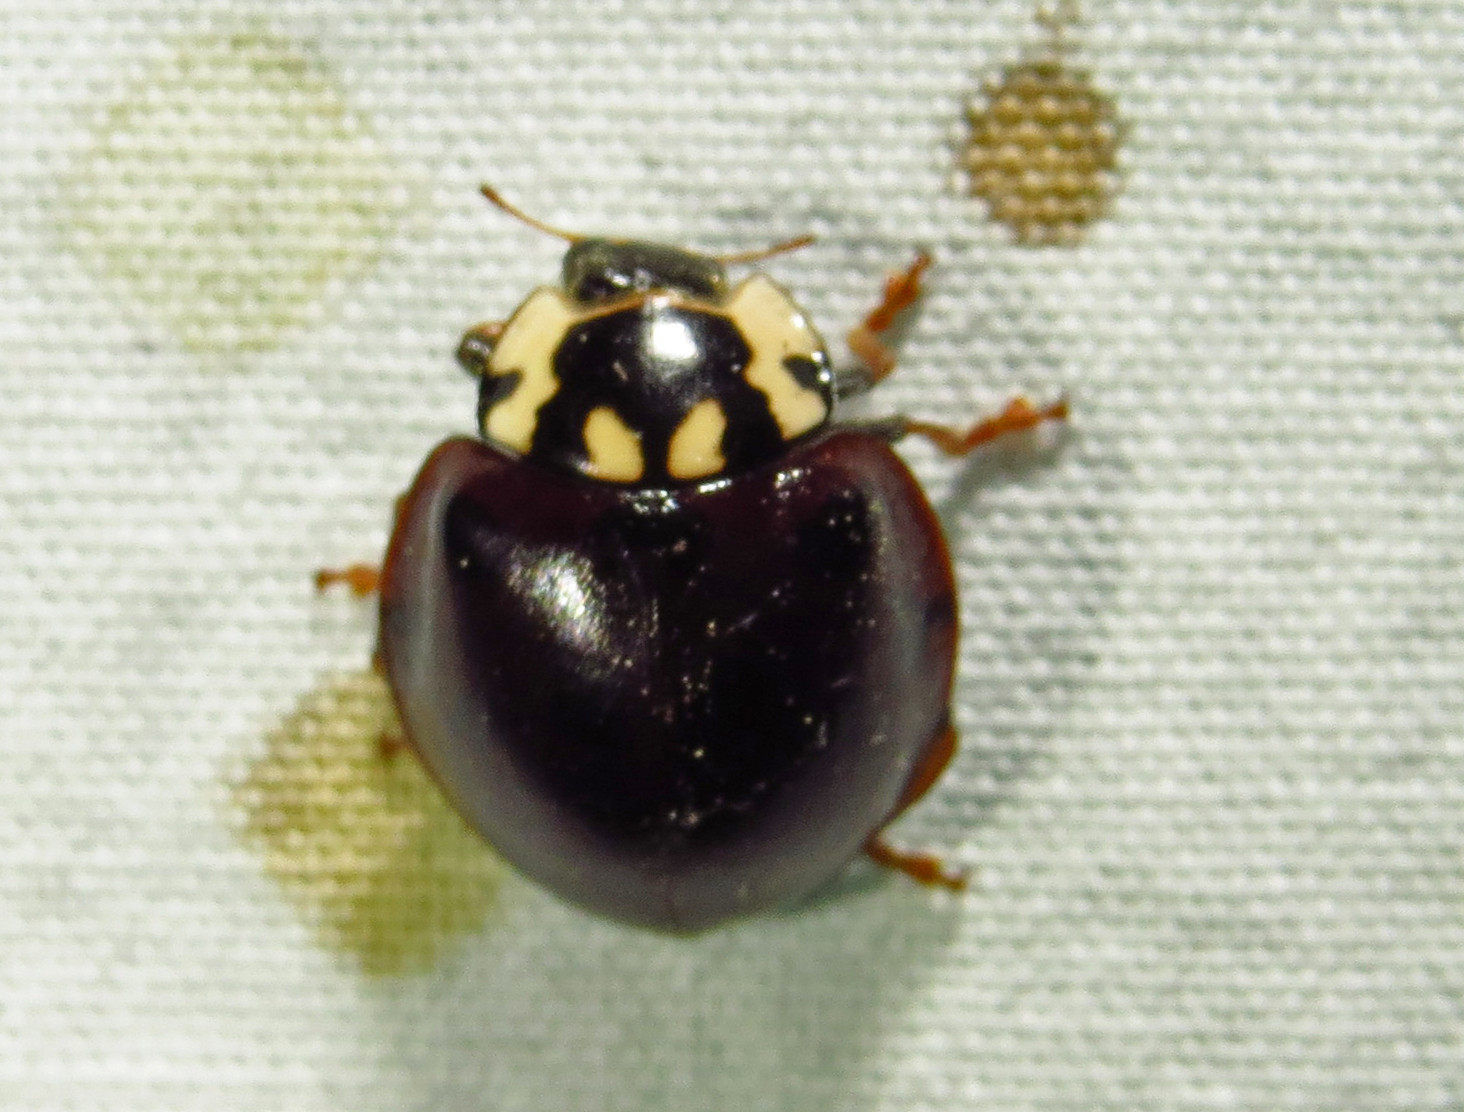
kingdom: Animalia
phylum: Arthropoda
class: Insecta
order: Coleoptera
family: Coccinellidae
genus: Anatis
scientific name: Anatis labiculata
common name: Fifteen-spotted lady beetle
